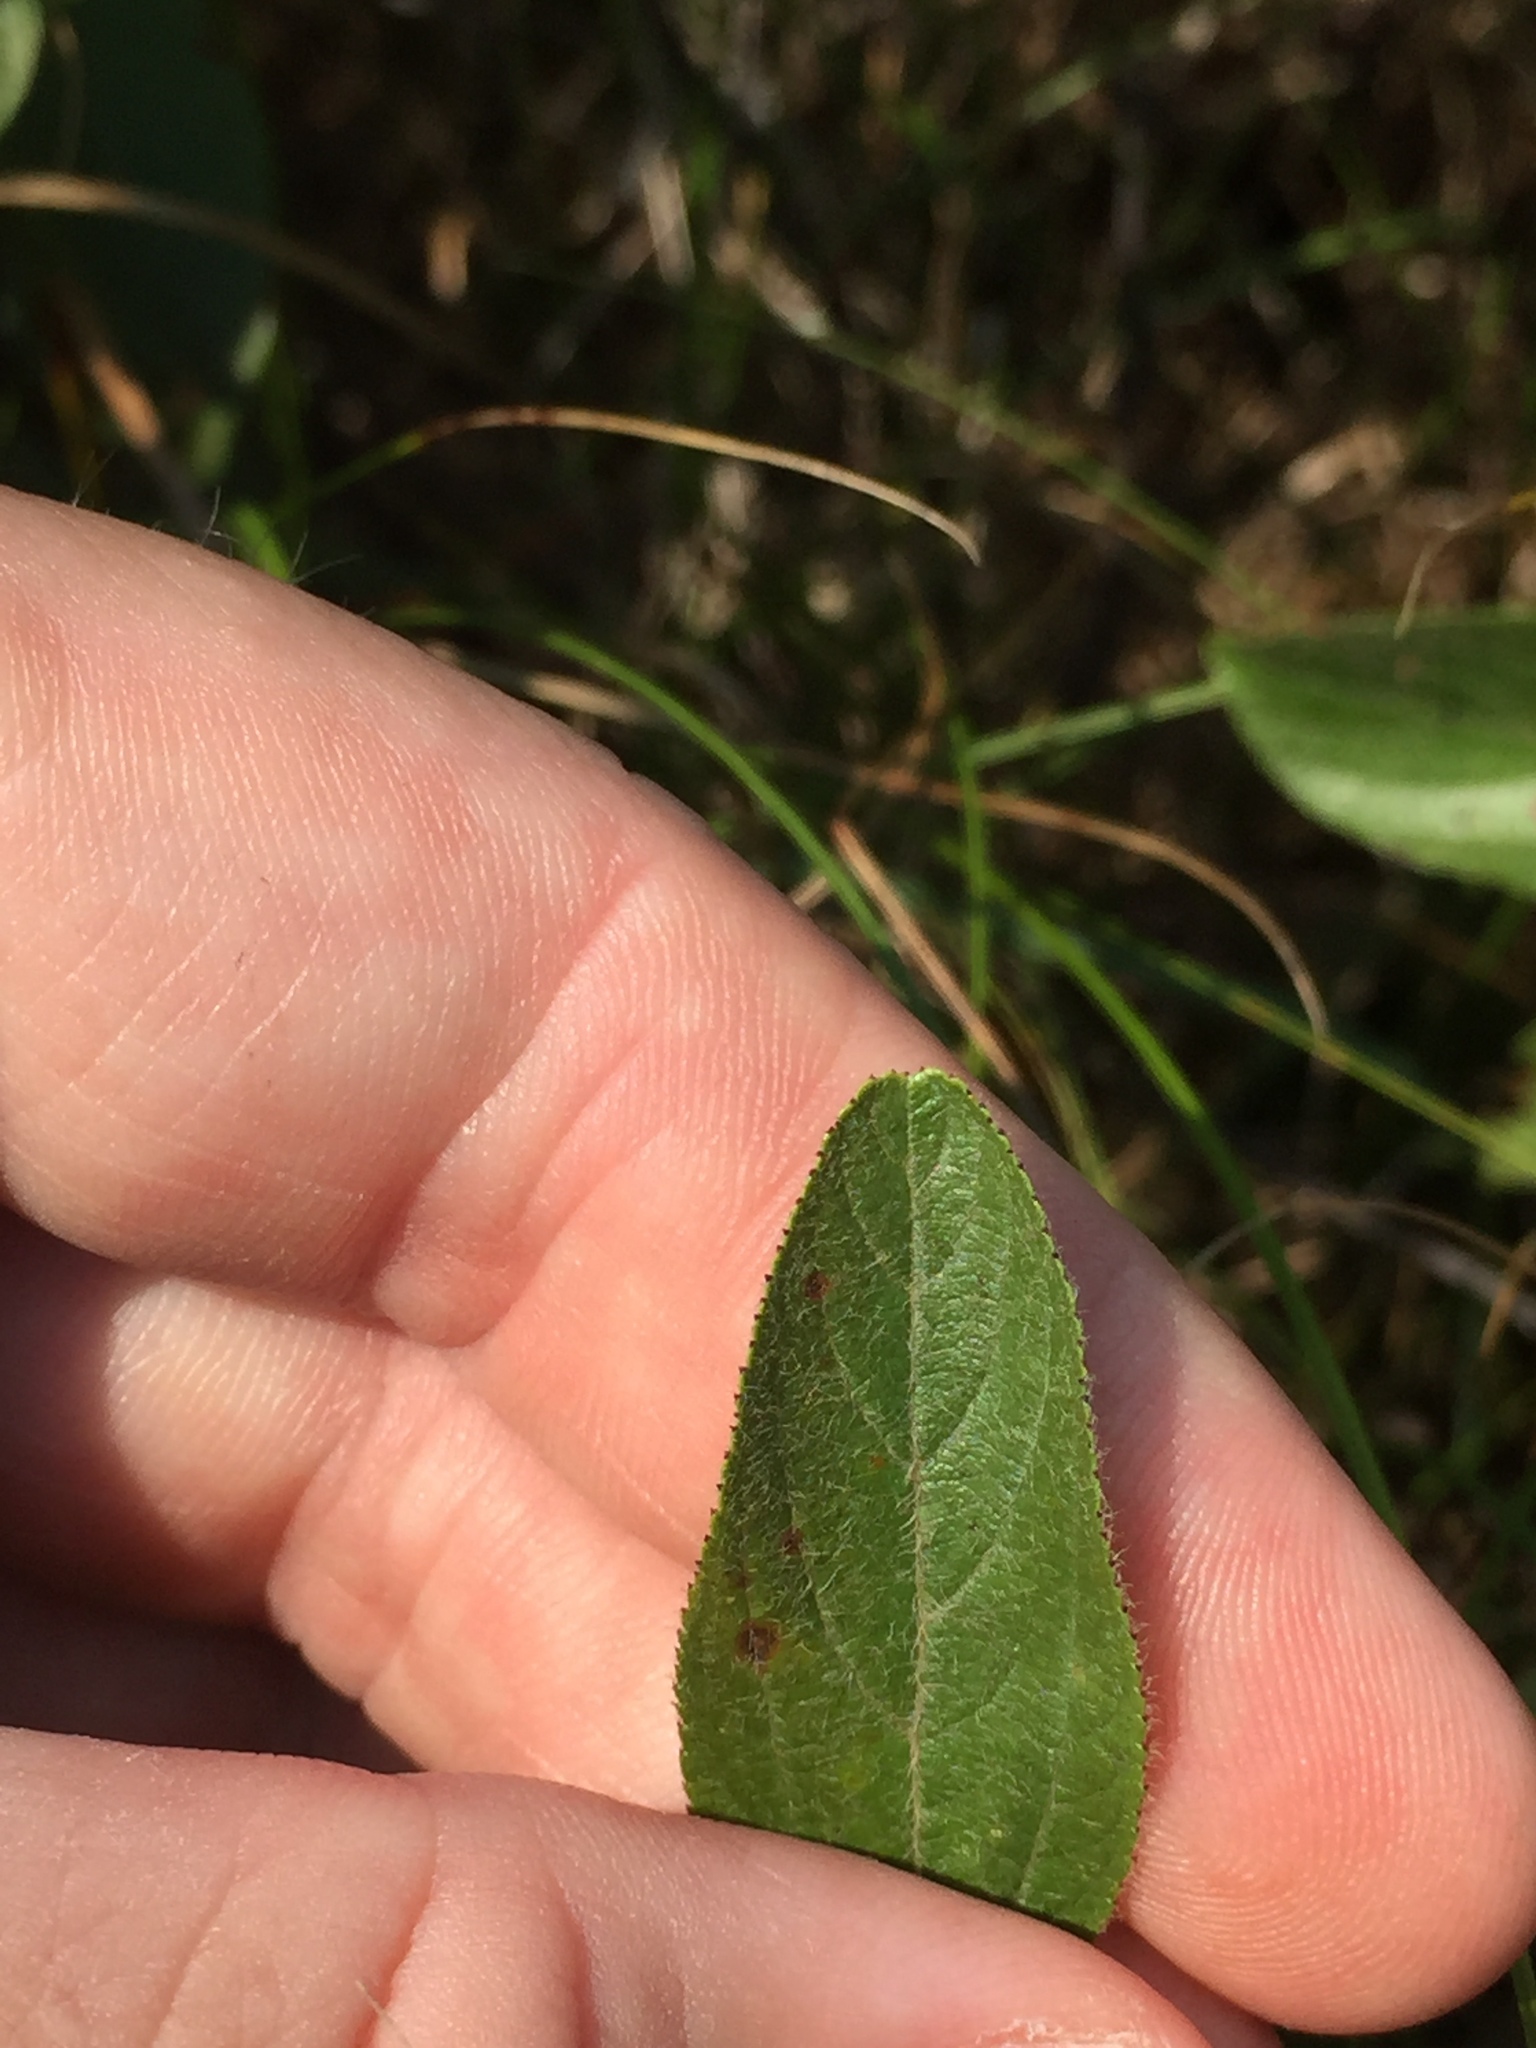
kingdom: Plantae
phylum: Tracheophyta
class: Magnoliopsida
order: Rosales
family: Rhamnaceae
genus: Ceanothus
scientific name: Ceanothus herbaceus
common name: Inland ceanothus
